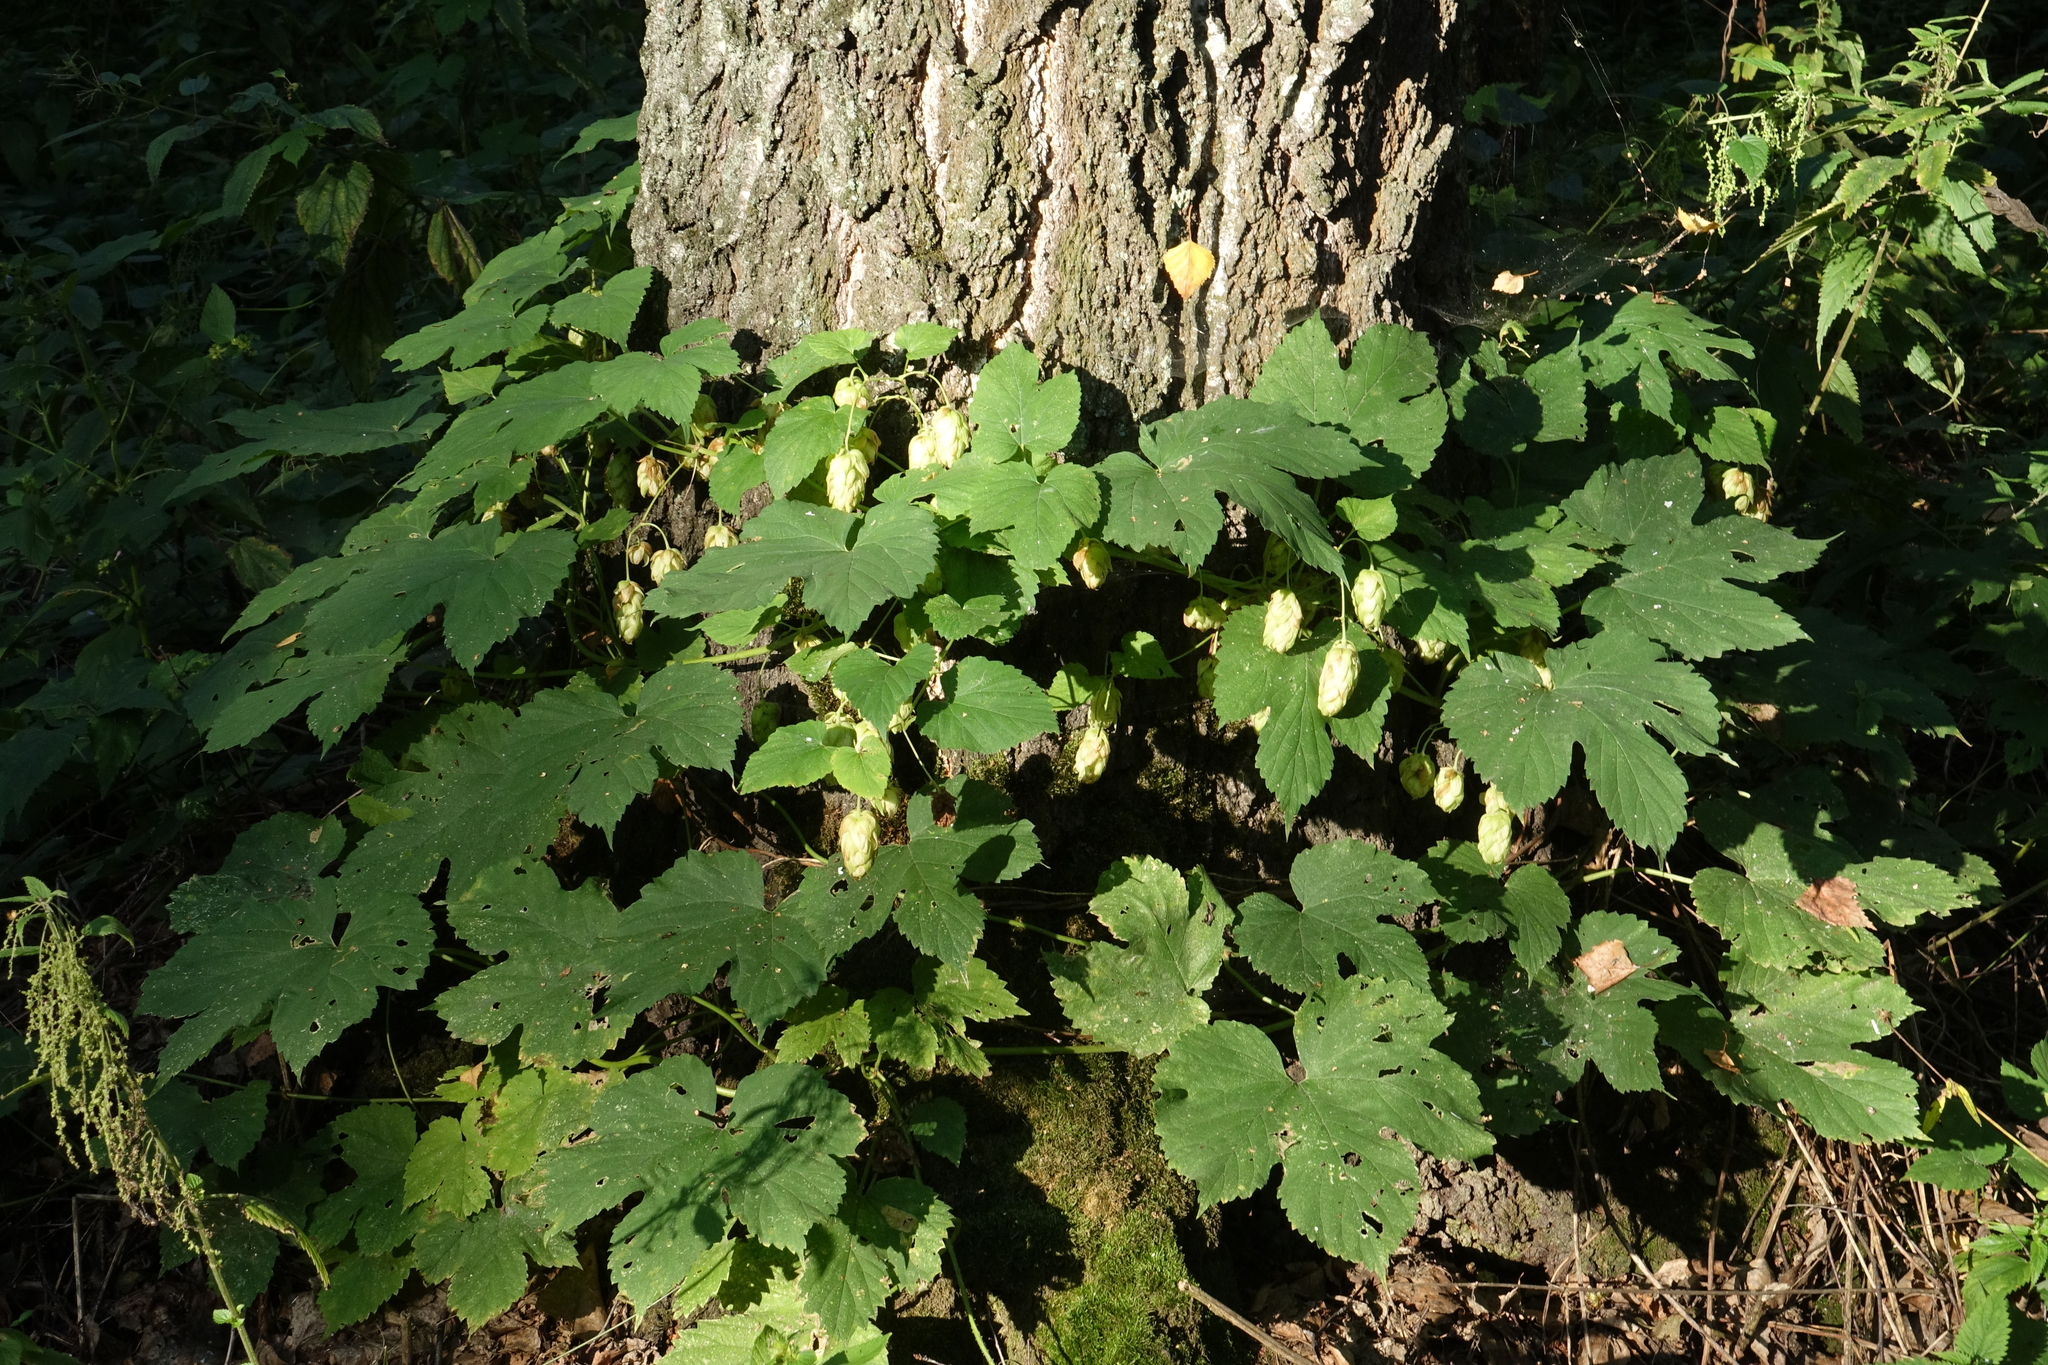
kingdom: Plantae
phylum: Tracheophyta
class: Magnoliopsida
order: Rosales
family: Cannabaceae
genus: Humulus
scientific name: Humulus lupulus
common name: Hop
